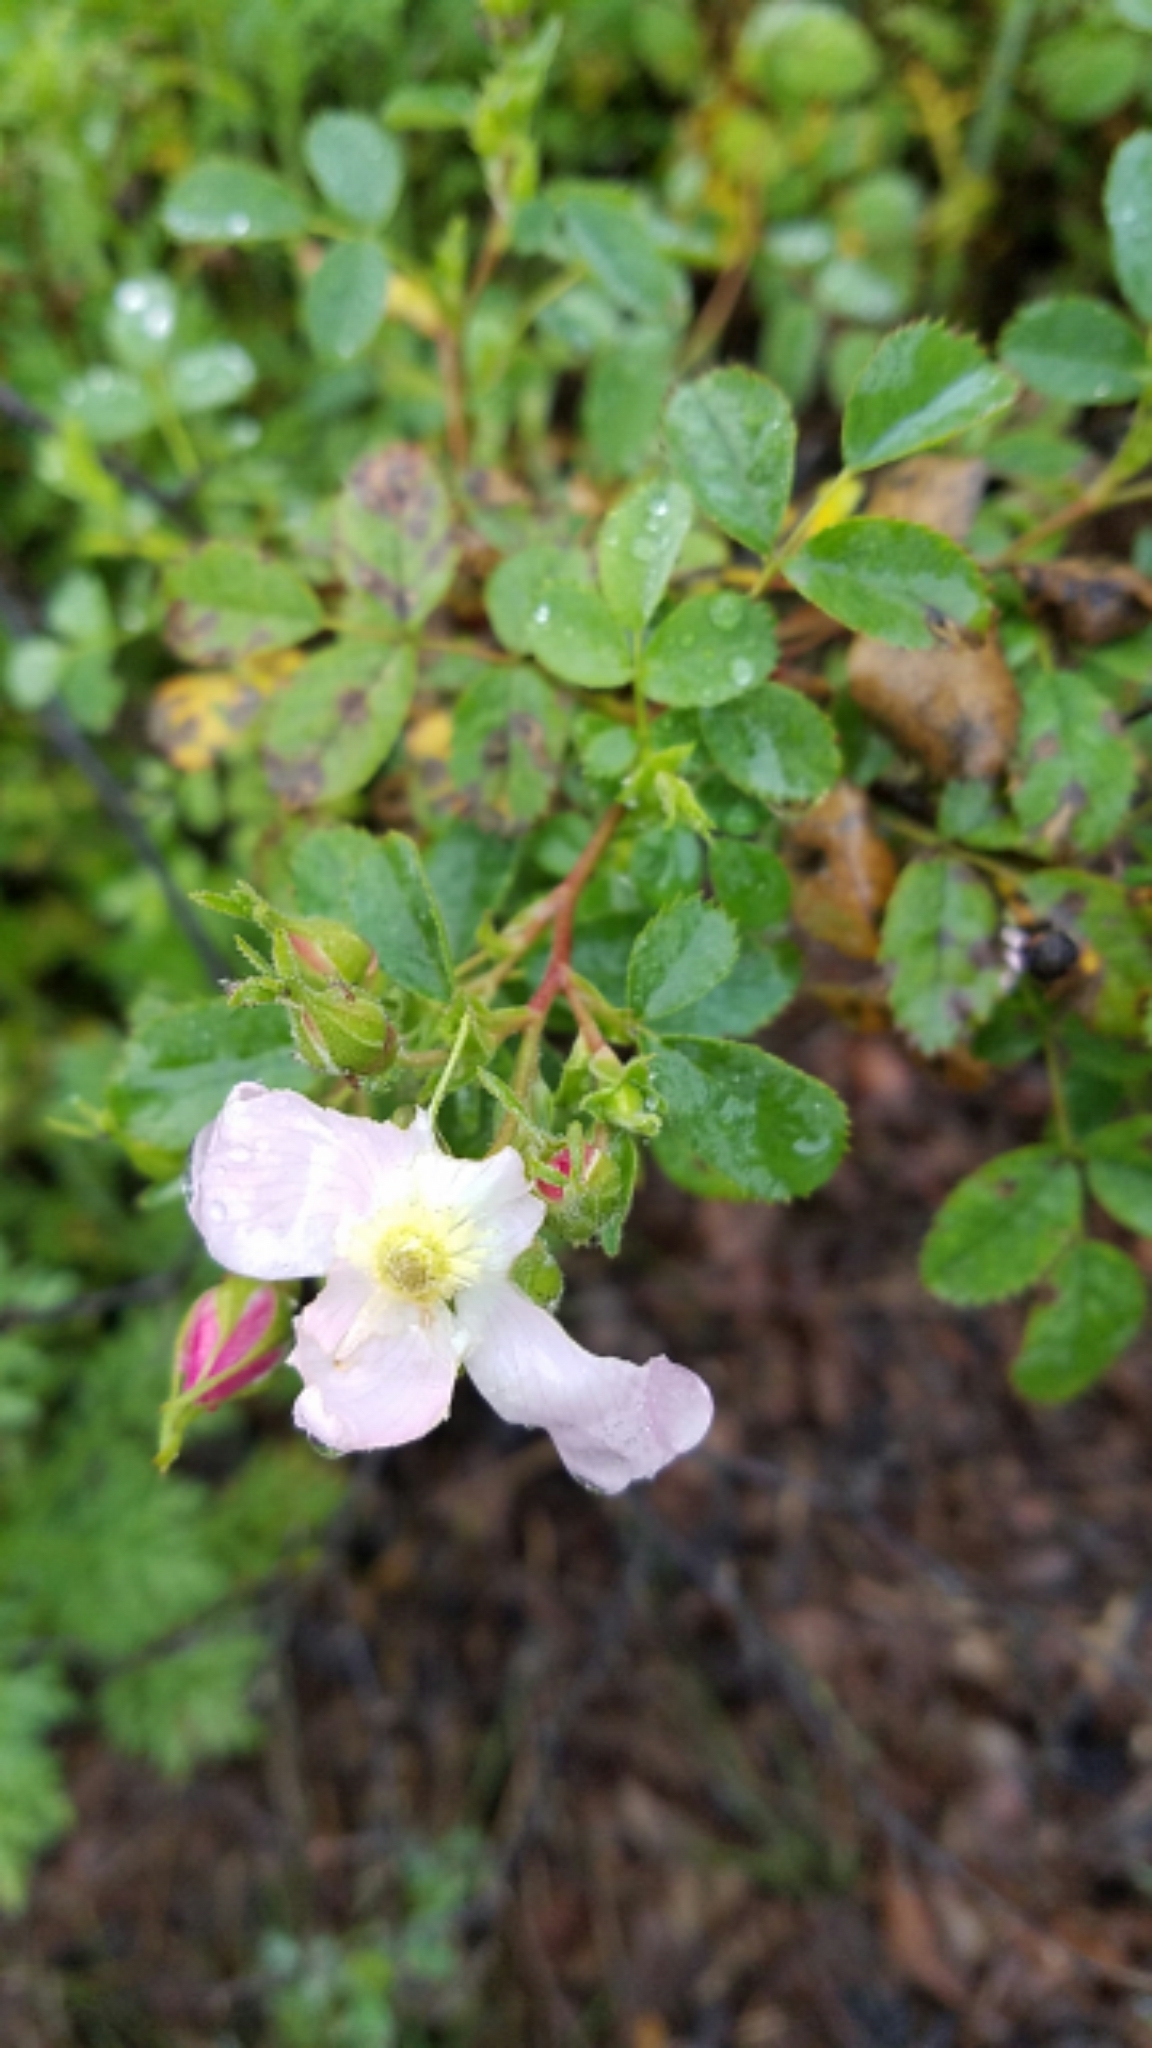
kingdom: Plantae
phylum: Tracheophyta
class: Magnoliopsida
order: Rosales
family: Rosaceae
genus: Rosa
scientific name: Rosa californica
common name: California rose
